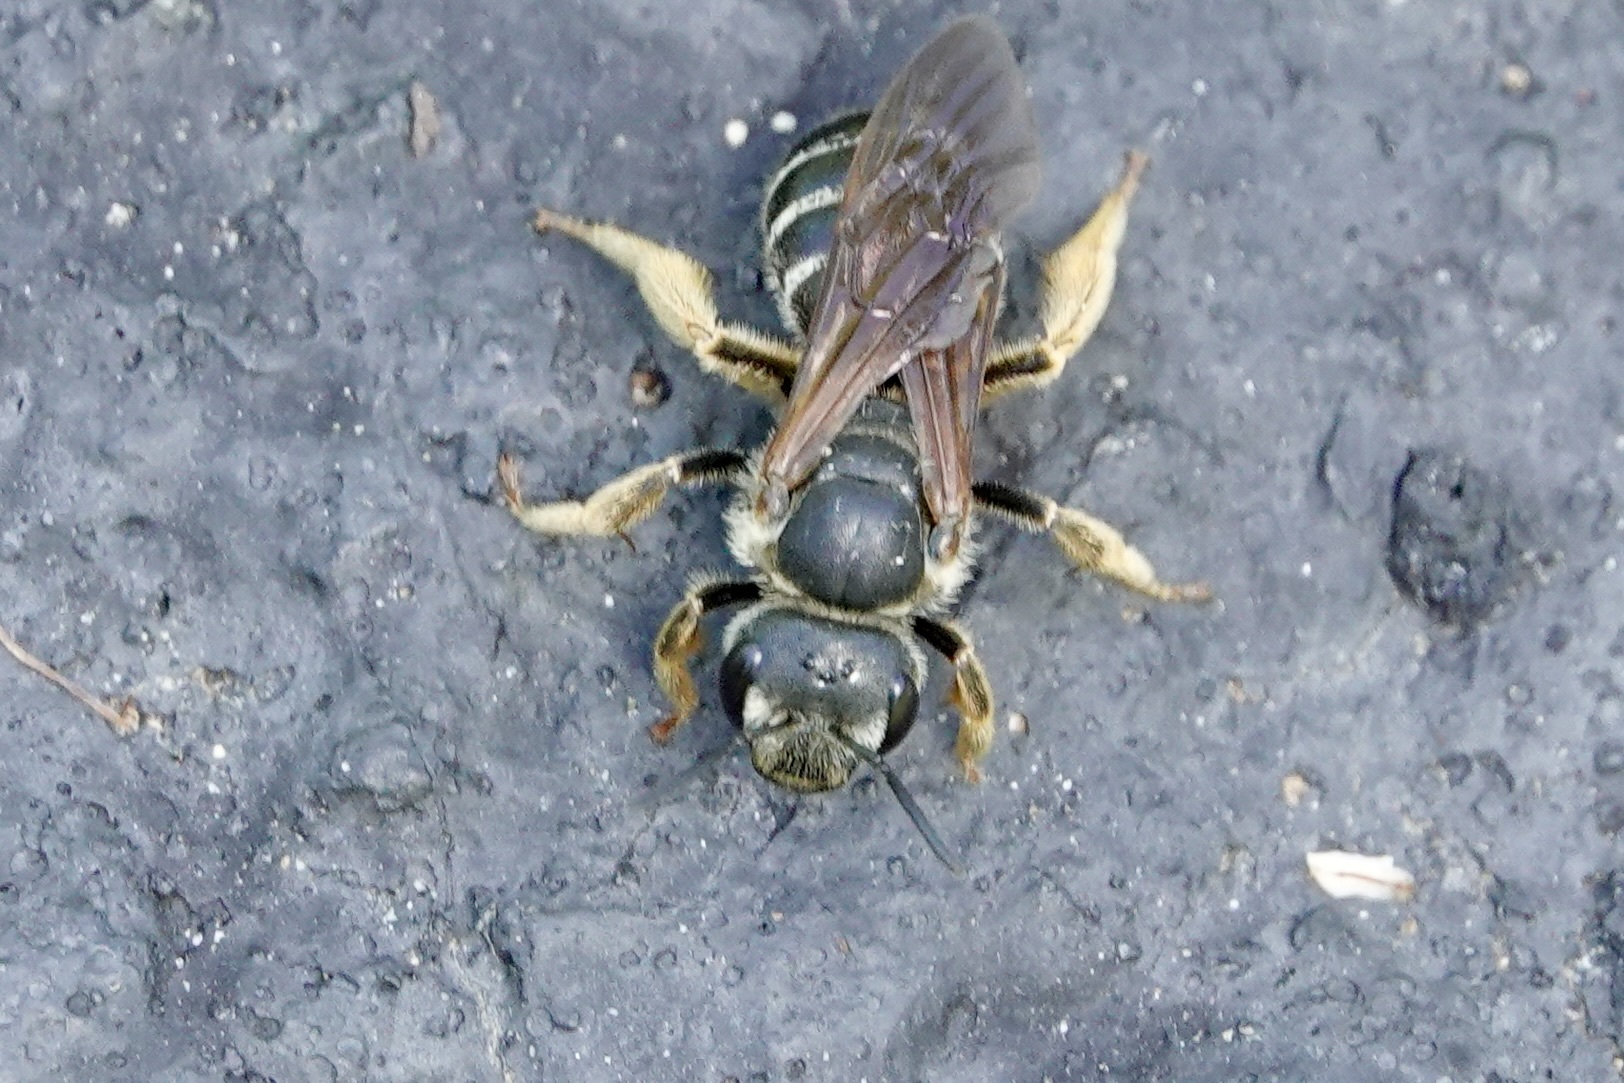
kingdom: Animalia
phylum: Arthropoda
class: Insecta
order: Hymenoptera
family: Halictidae
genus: Halictus
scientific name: Halictus parallelus
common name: Parallel-striped sweat bee
